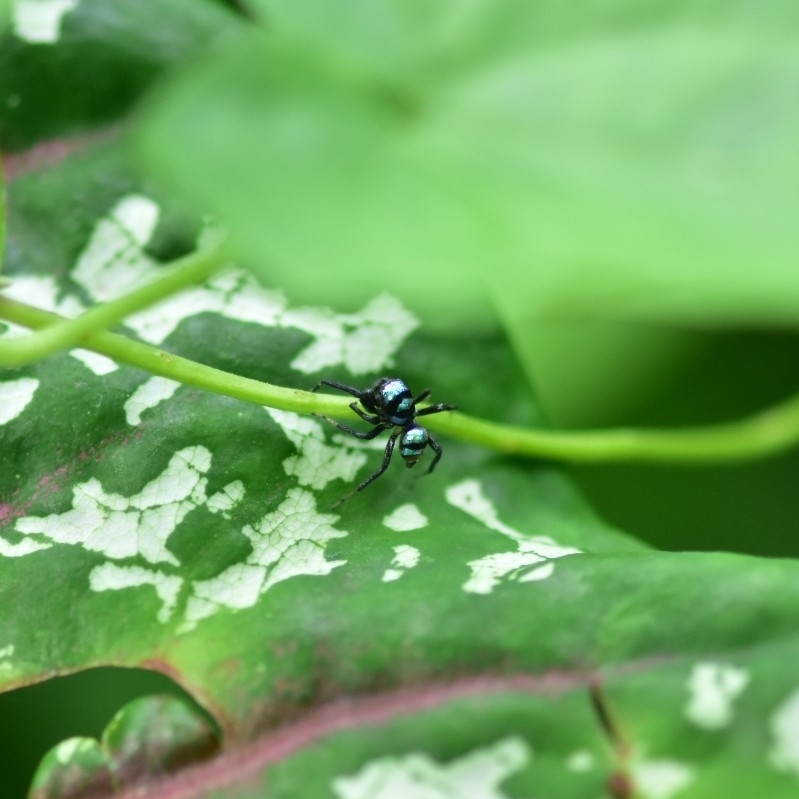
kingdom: Animalia
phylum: Arthropoda
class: Arachnida
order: Araneae
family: Salticidae
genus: Phintella
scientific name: Phintella vittata
